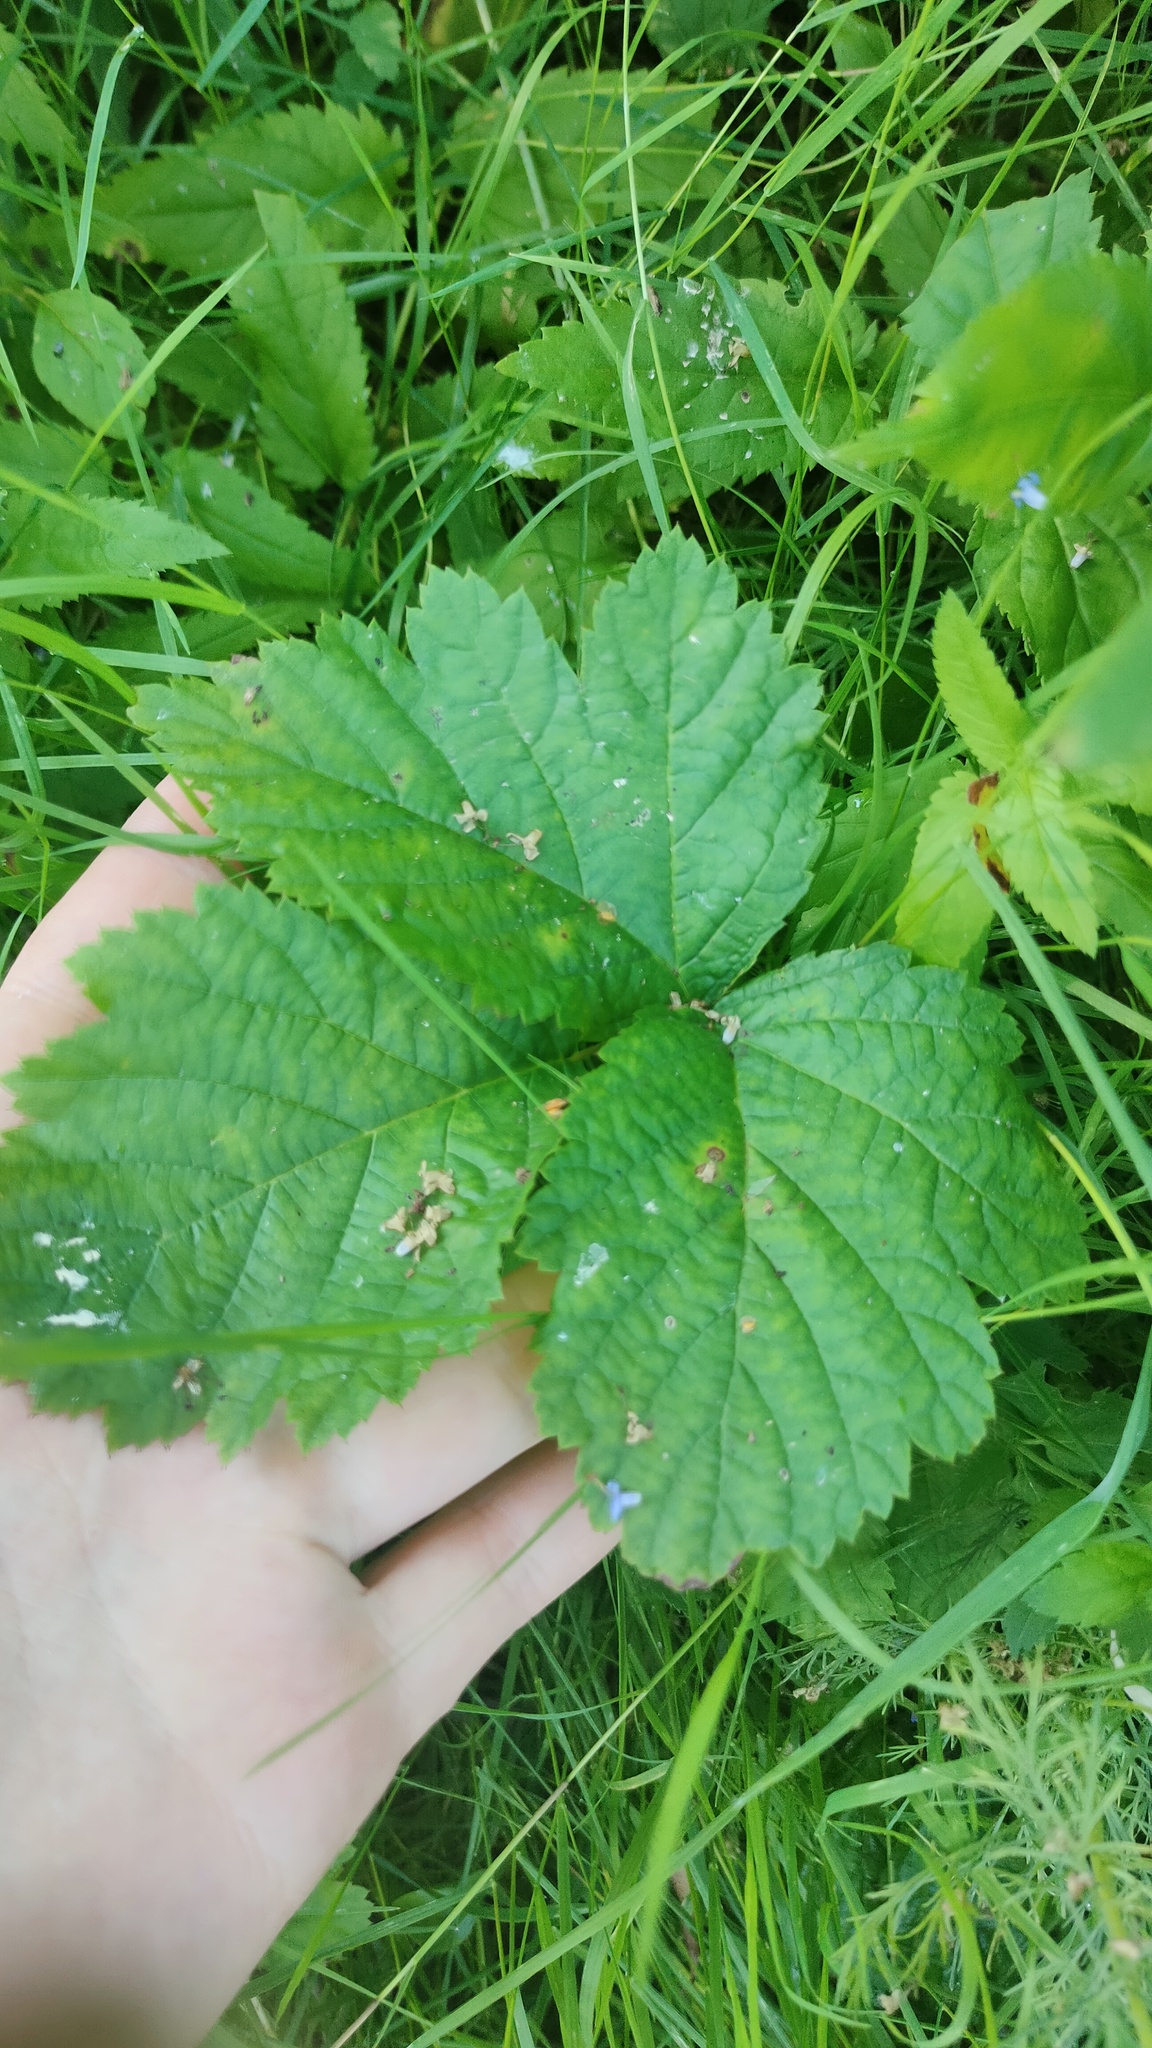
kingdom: Plantae
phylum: Tracheophyta
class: Magnoliopsida
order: Rosales
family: Rosaceae
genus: Rubus
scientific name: Rubus caesius
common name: Dewberry
